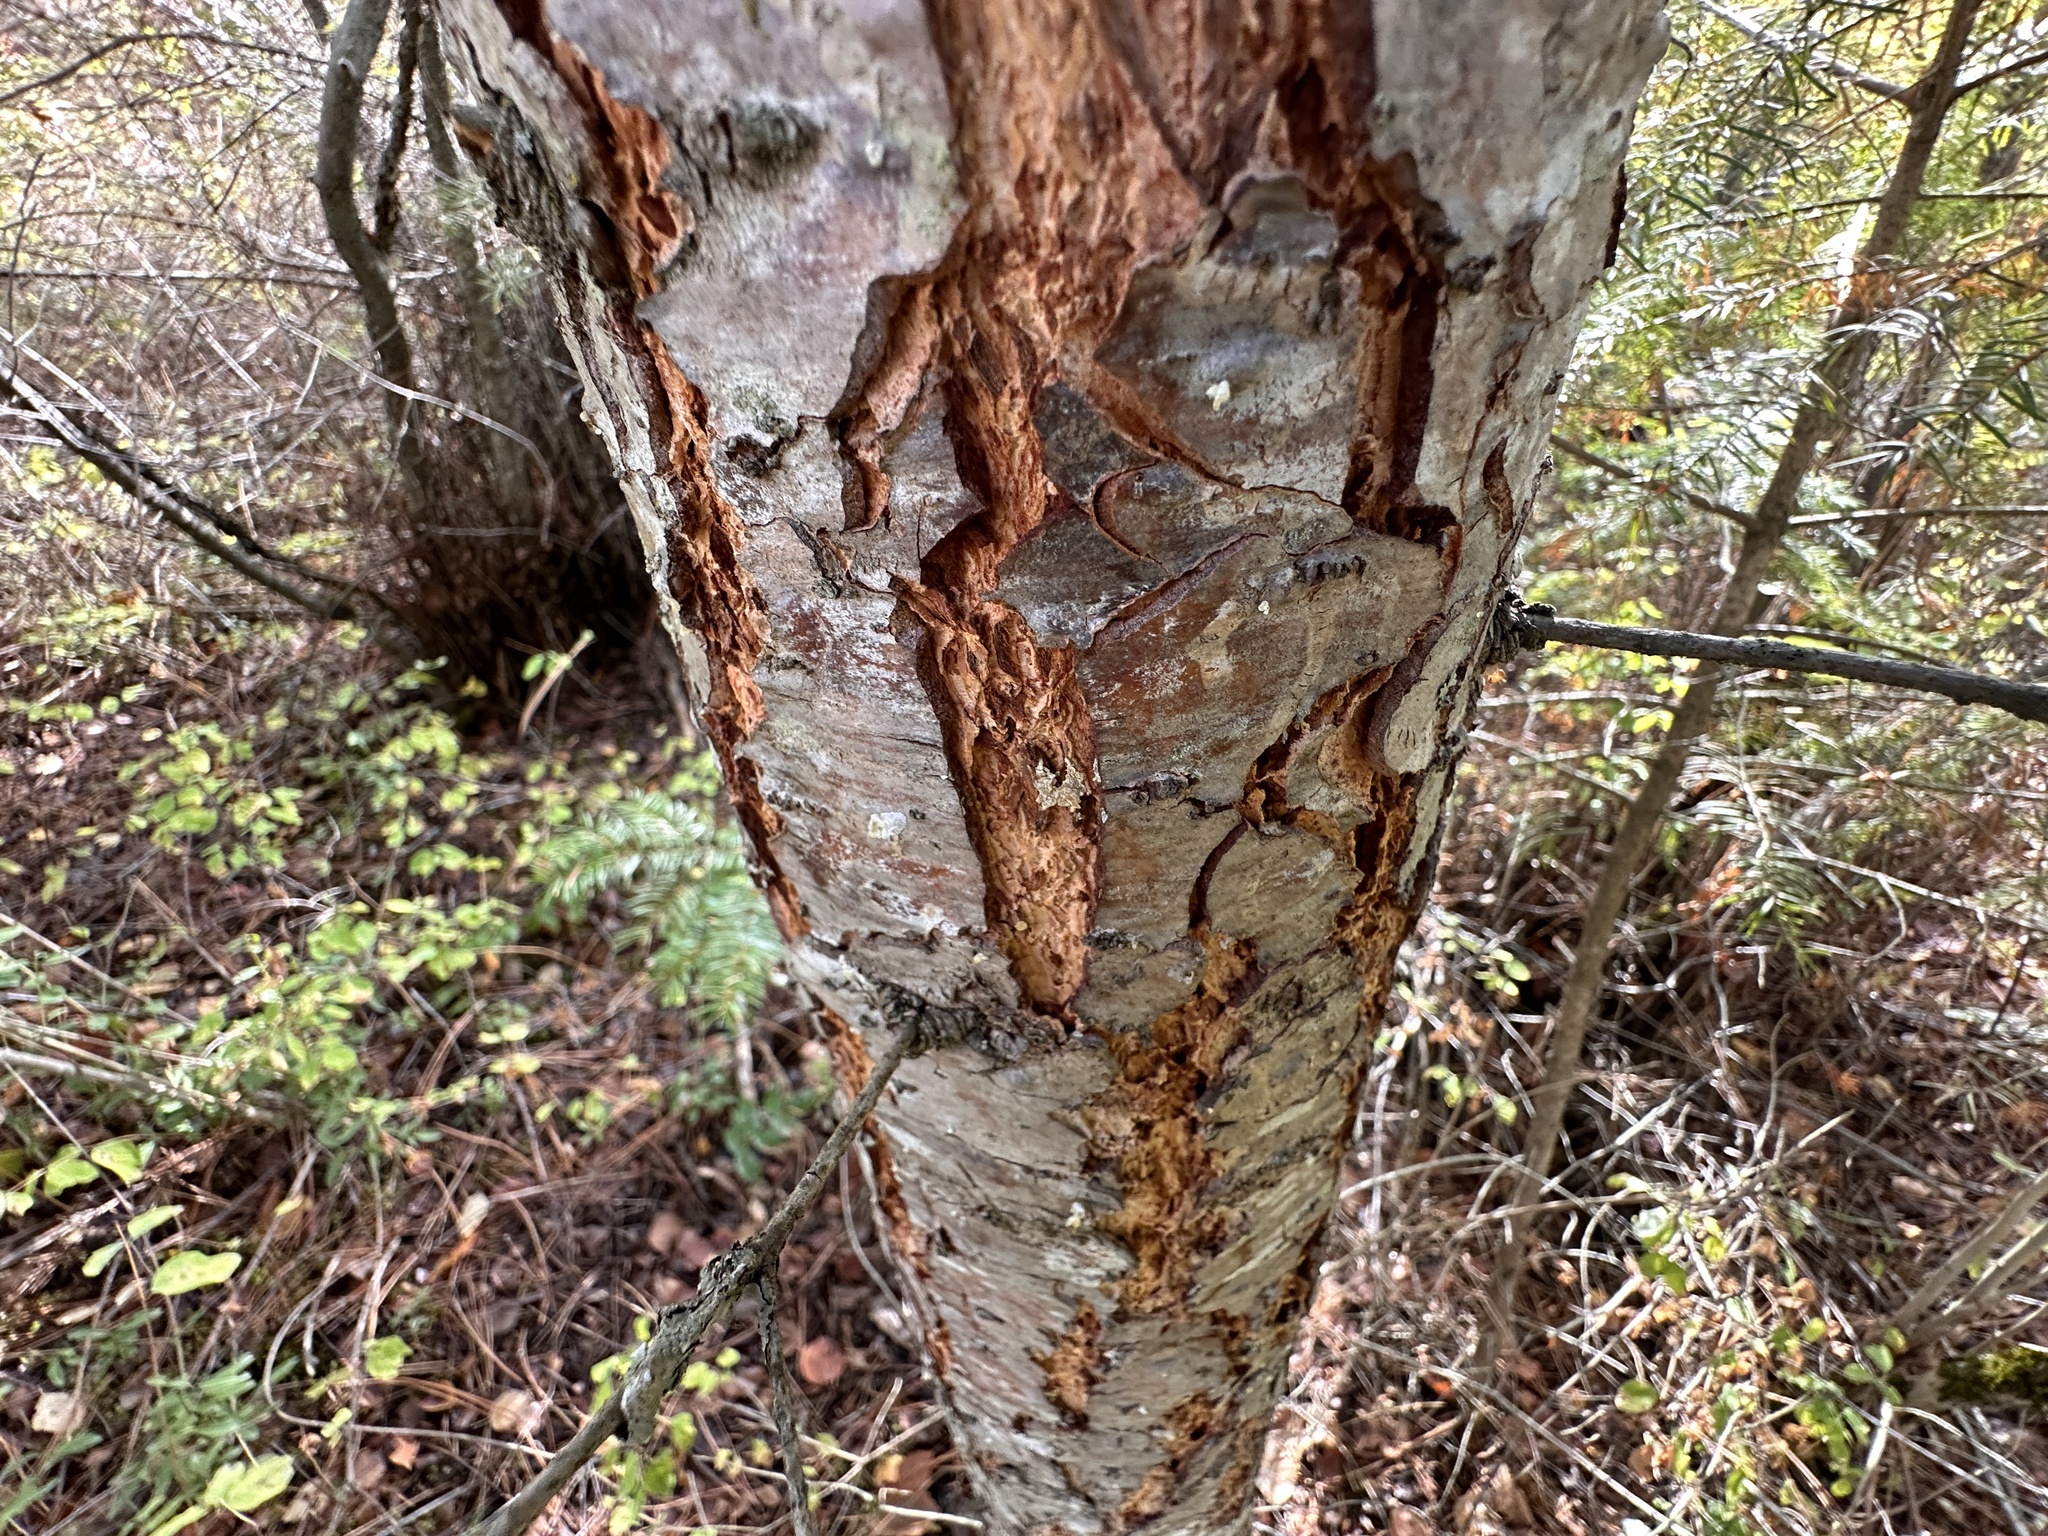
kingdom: Plantae
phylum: Tracheophyta
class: Pinopsida
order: Pinales
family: Pinaceae
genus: Pseudotsuga
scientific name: Pseudotsuga menziesii
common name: Douglas fir
